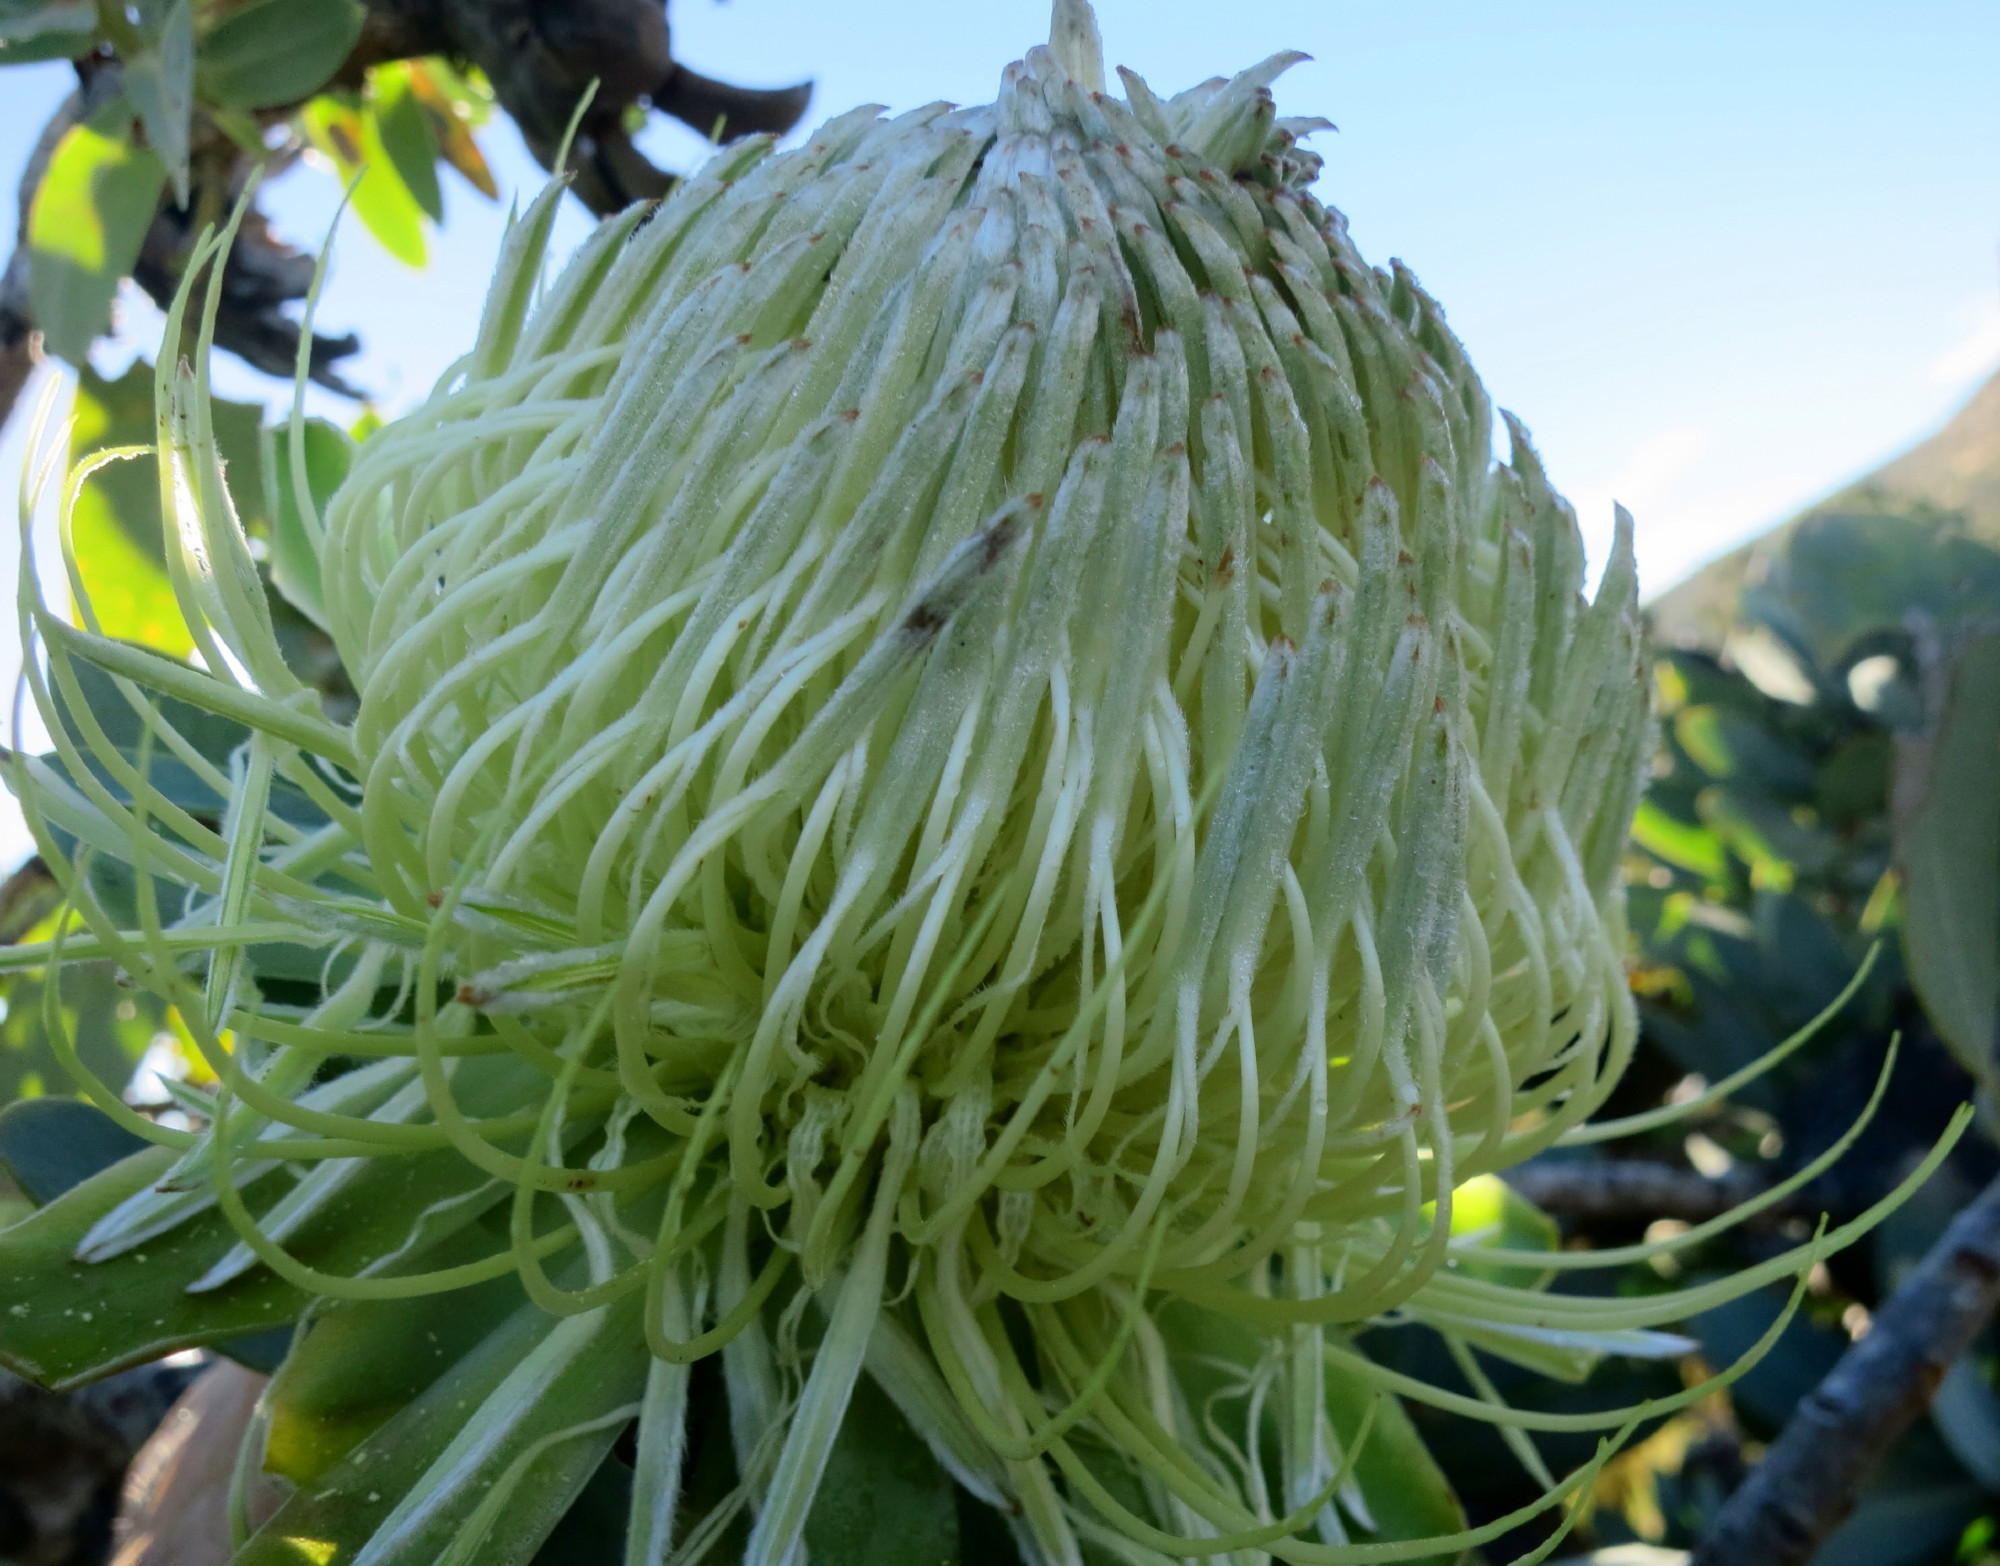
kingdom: Plantae
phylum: Tracheophyta
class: Magnoliopsida
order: Proteales
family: Proteaceae
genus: Protea
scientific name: Protea nitida
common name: Tree protea
